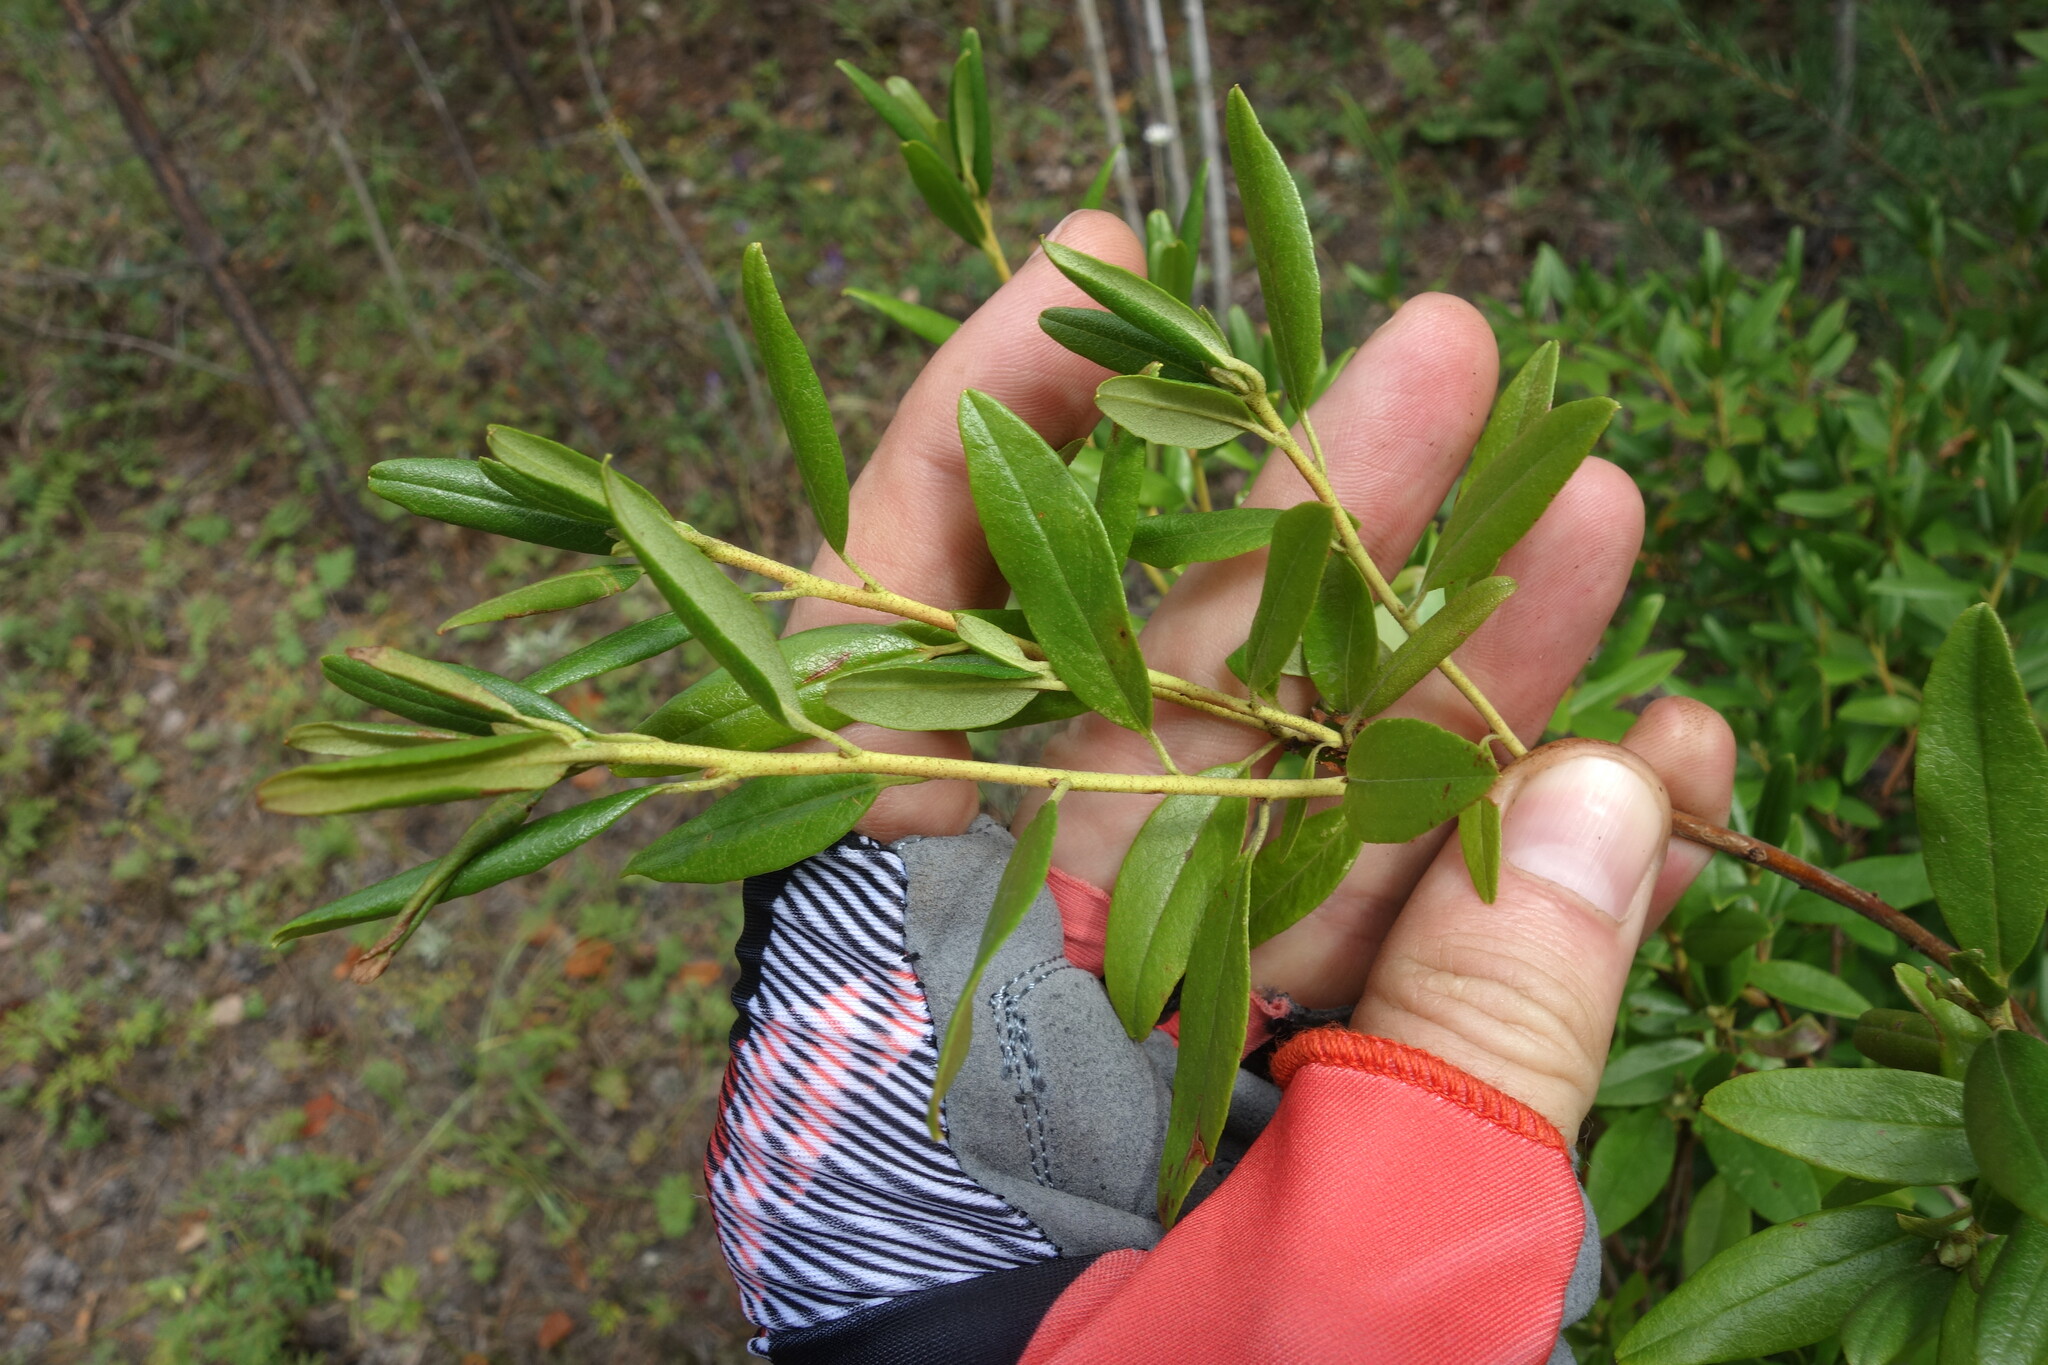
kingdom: Plantae
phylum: Tracheophyta
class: Magnoliopsida
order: Ericales
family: Ericaceae
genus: Rhododendron
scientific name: Rhododendron dauricum
